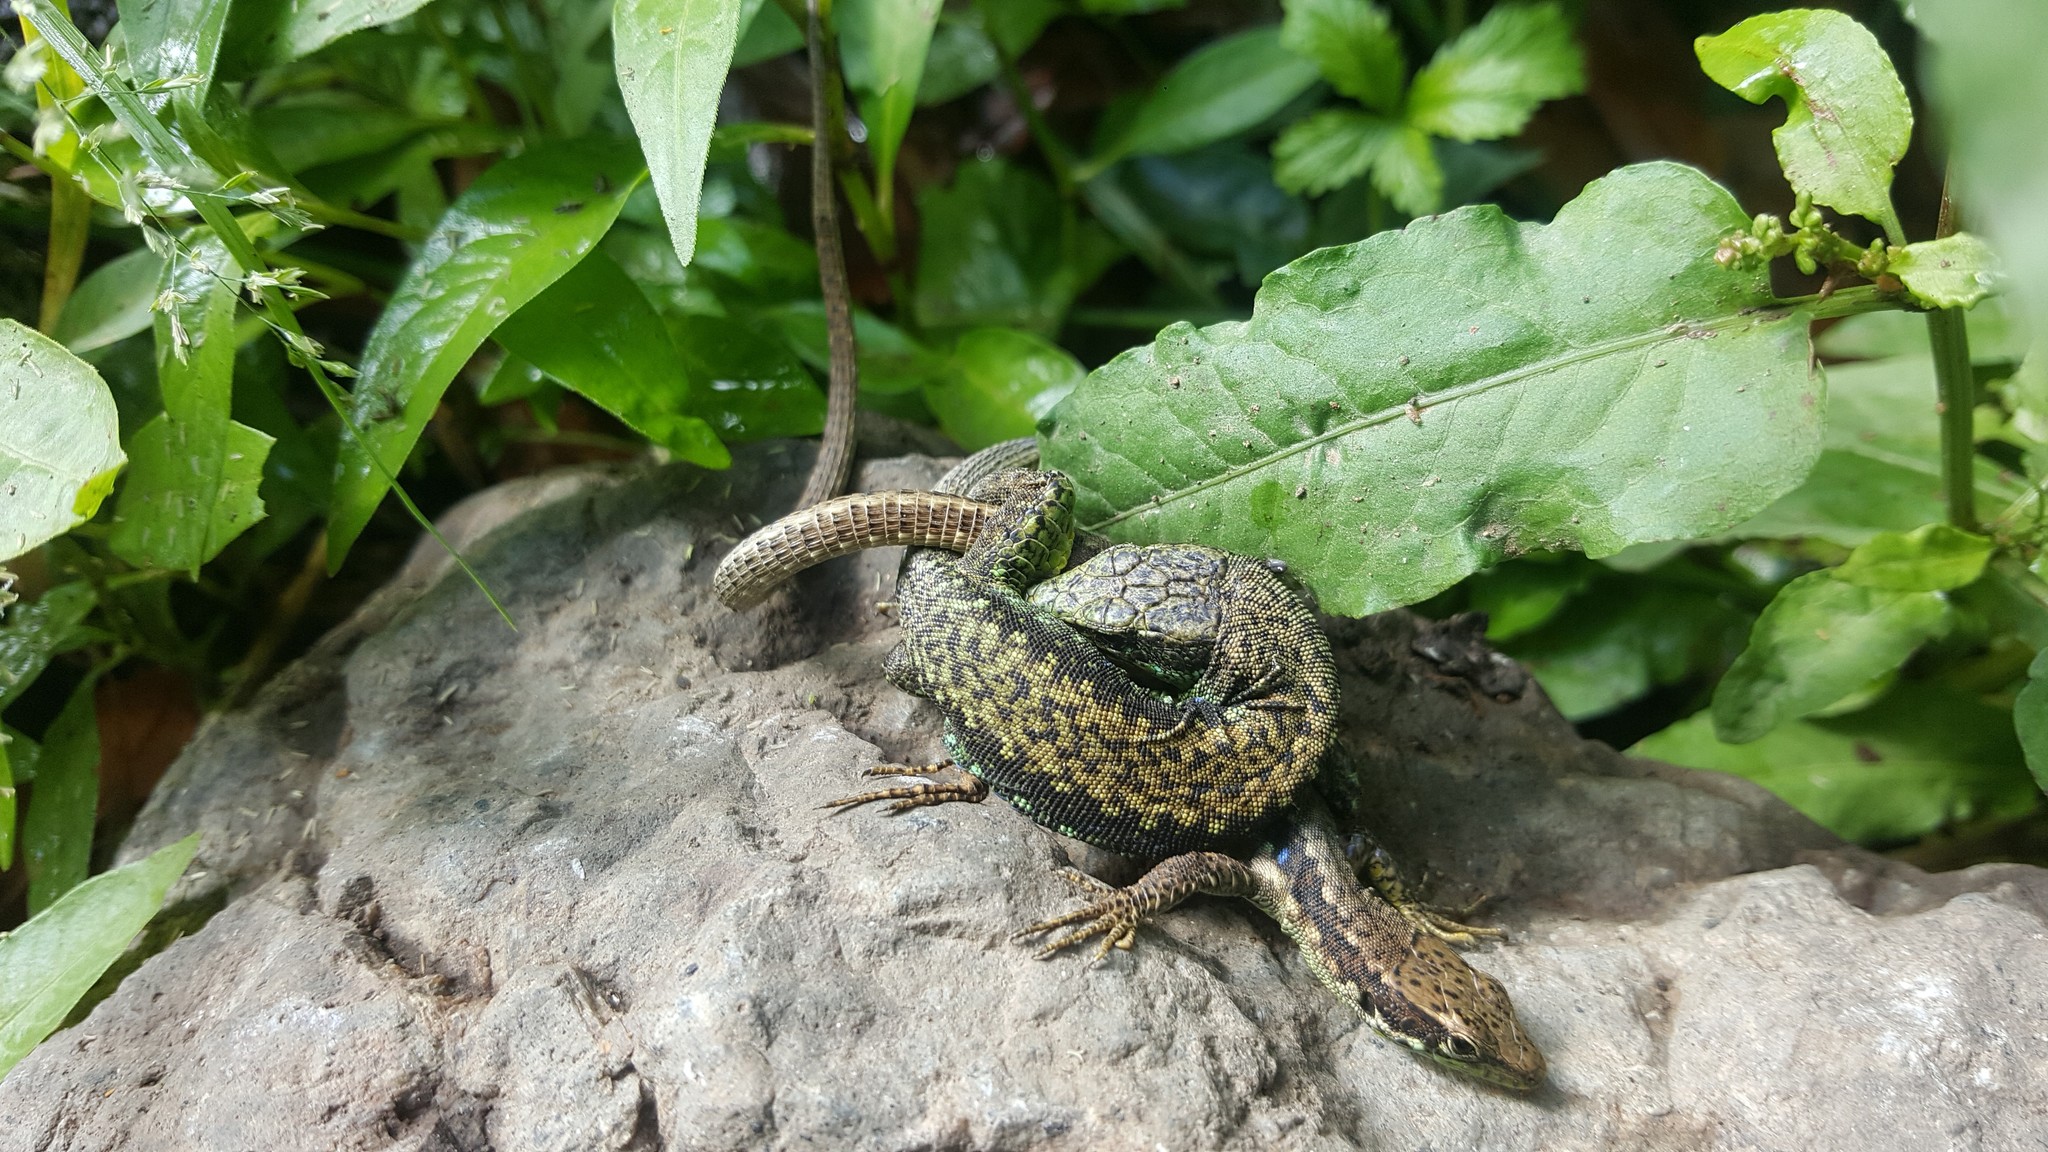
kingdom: Animalia
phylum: Chordata
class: Squamata
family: Lacertidae
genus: Darevskia
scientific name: Darevskia chlorogaster
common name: Green-bellied lizard
